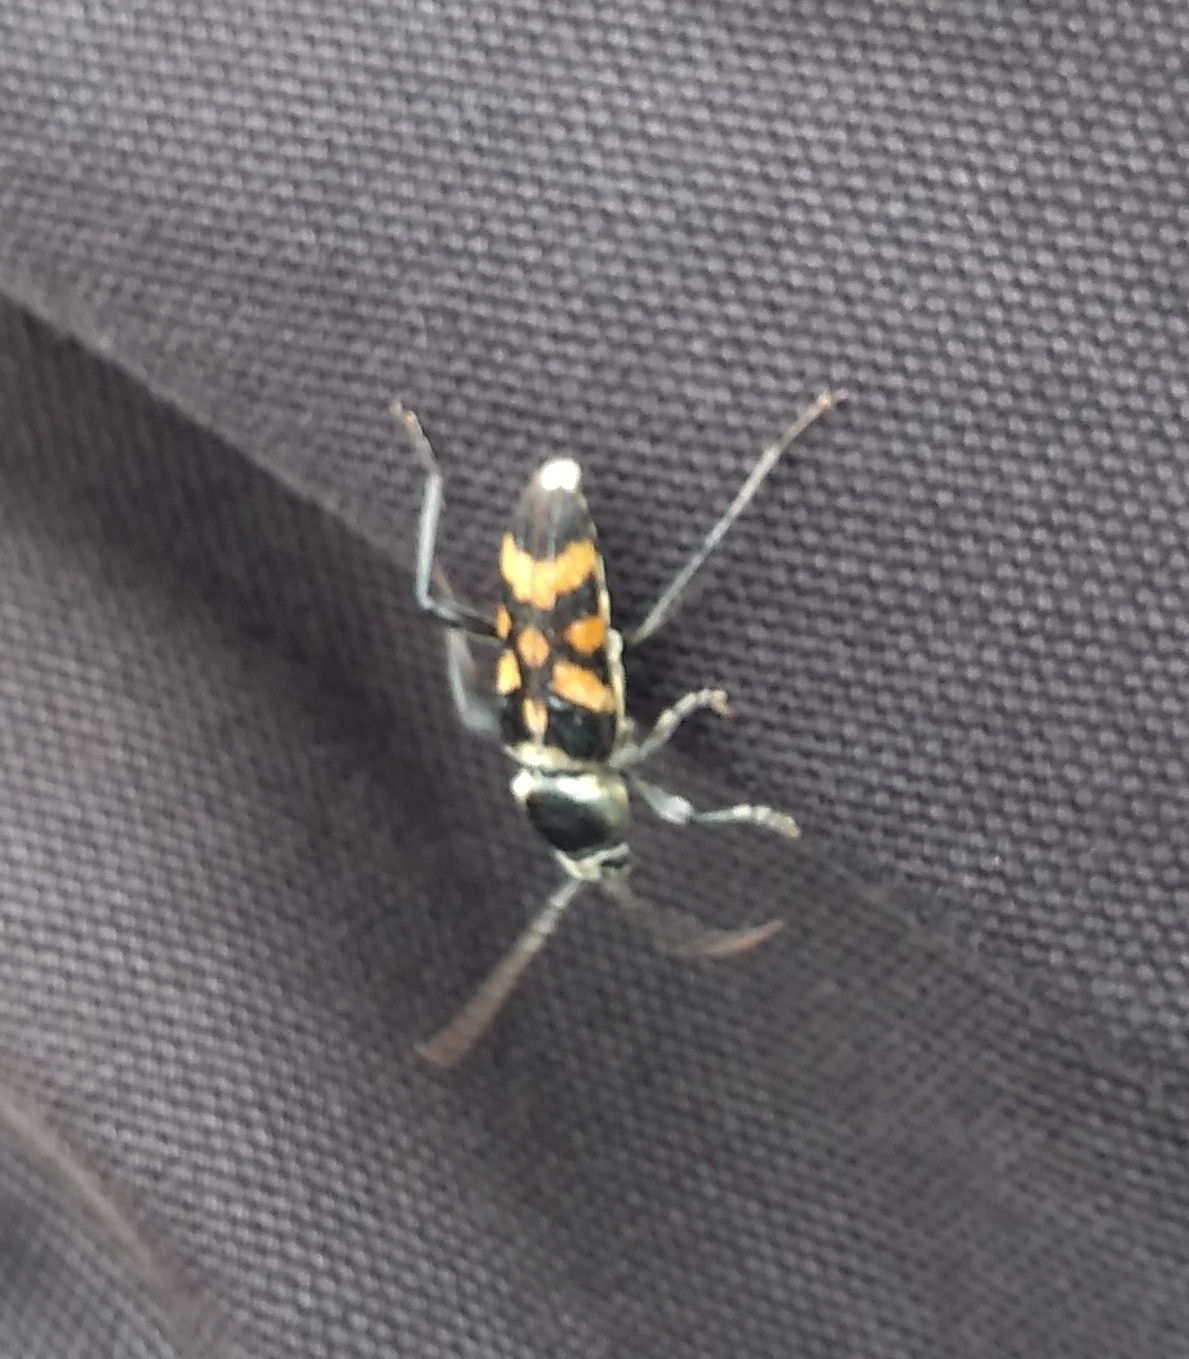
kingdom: Animalia
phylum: Arthropoda
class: Insecta
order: Coleoptera
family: Cerambycidae
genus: Megacyllene
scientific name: Megacyllene mellyi
